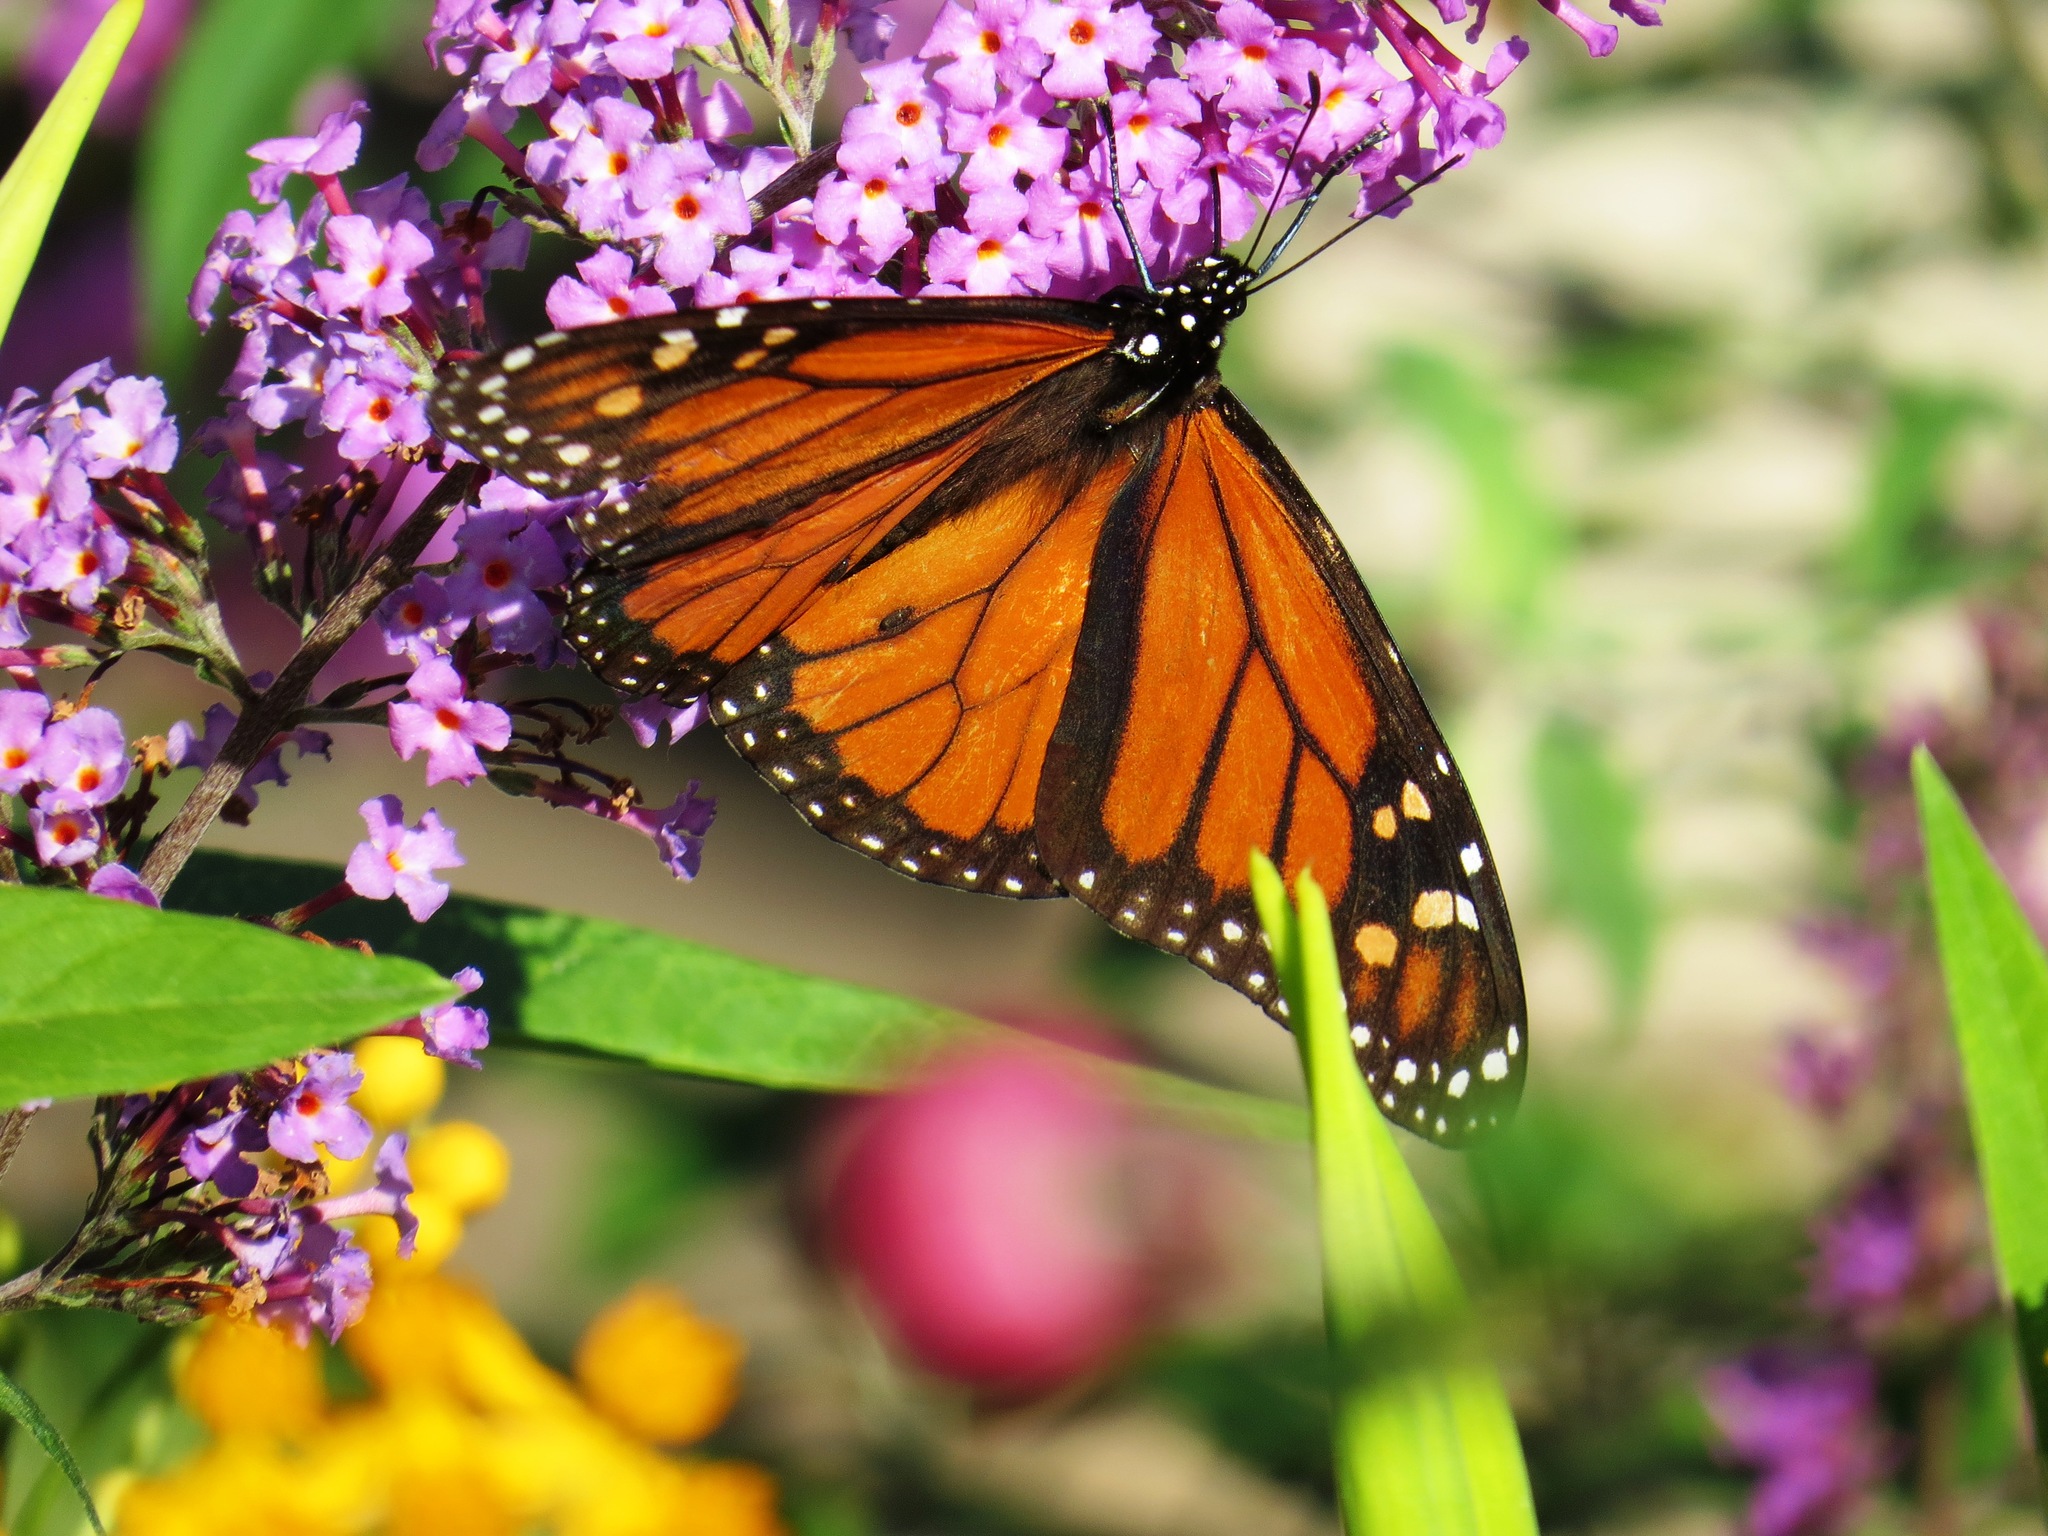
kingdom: Animalia
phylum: Arthropoda
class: Insecta
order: Lepidoptera
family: Nymphalidae
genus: Danaus
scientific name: Danaus plexippus
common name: Monarch
